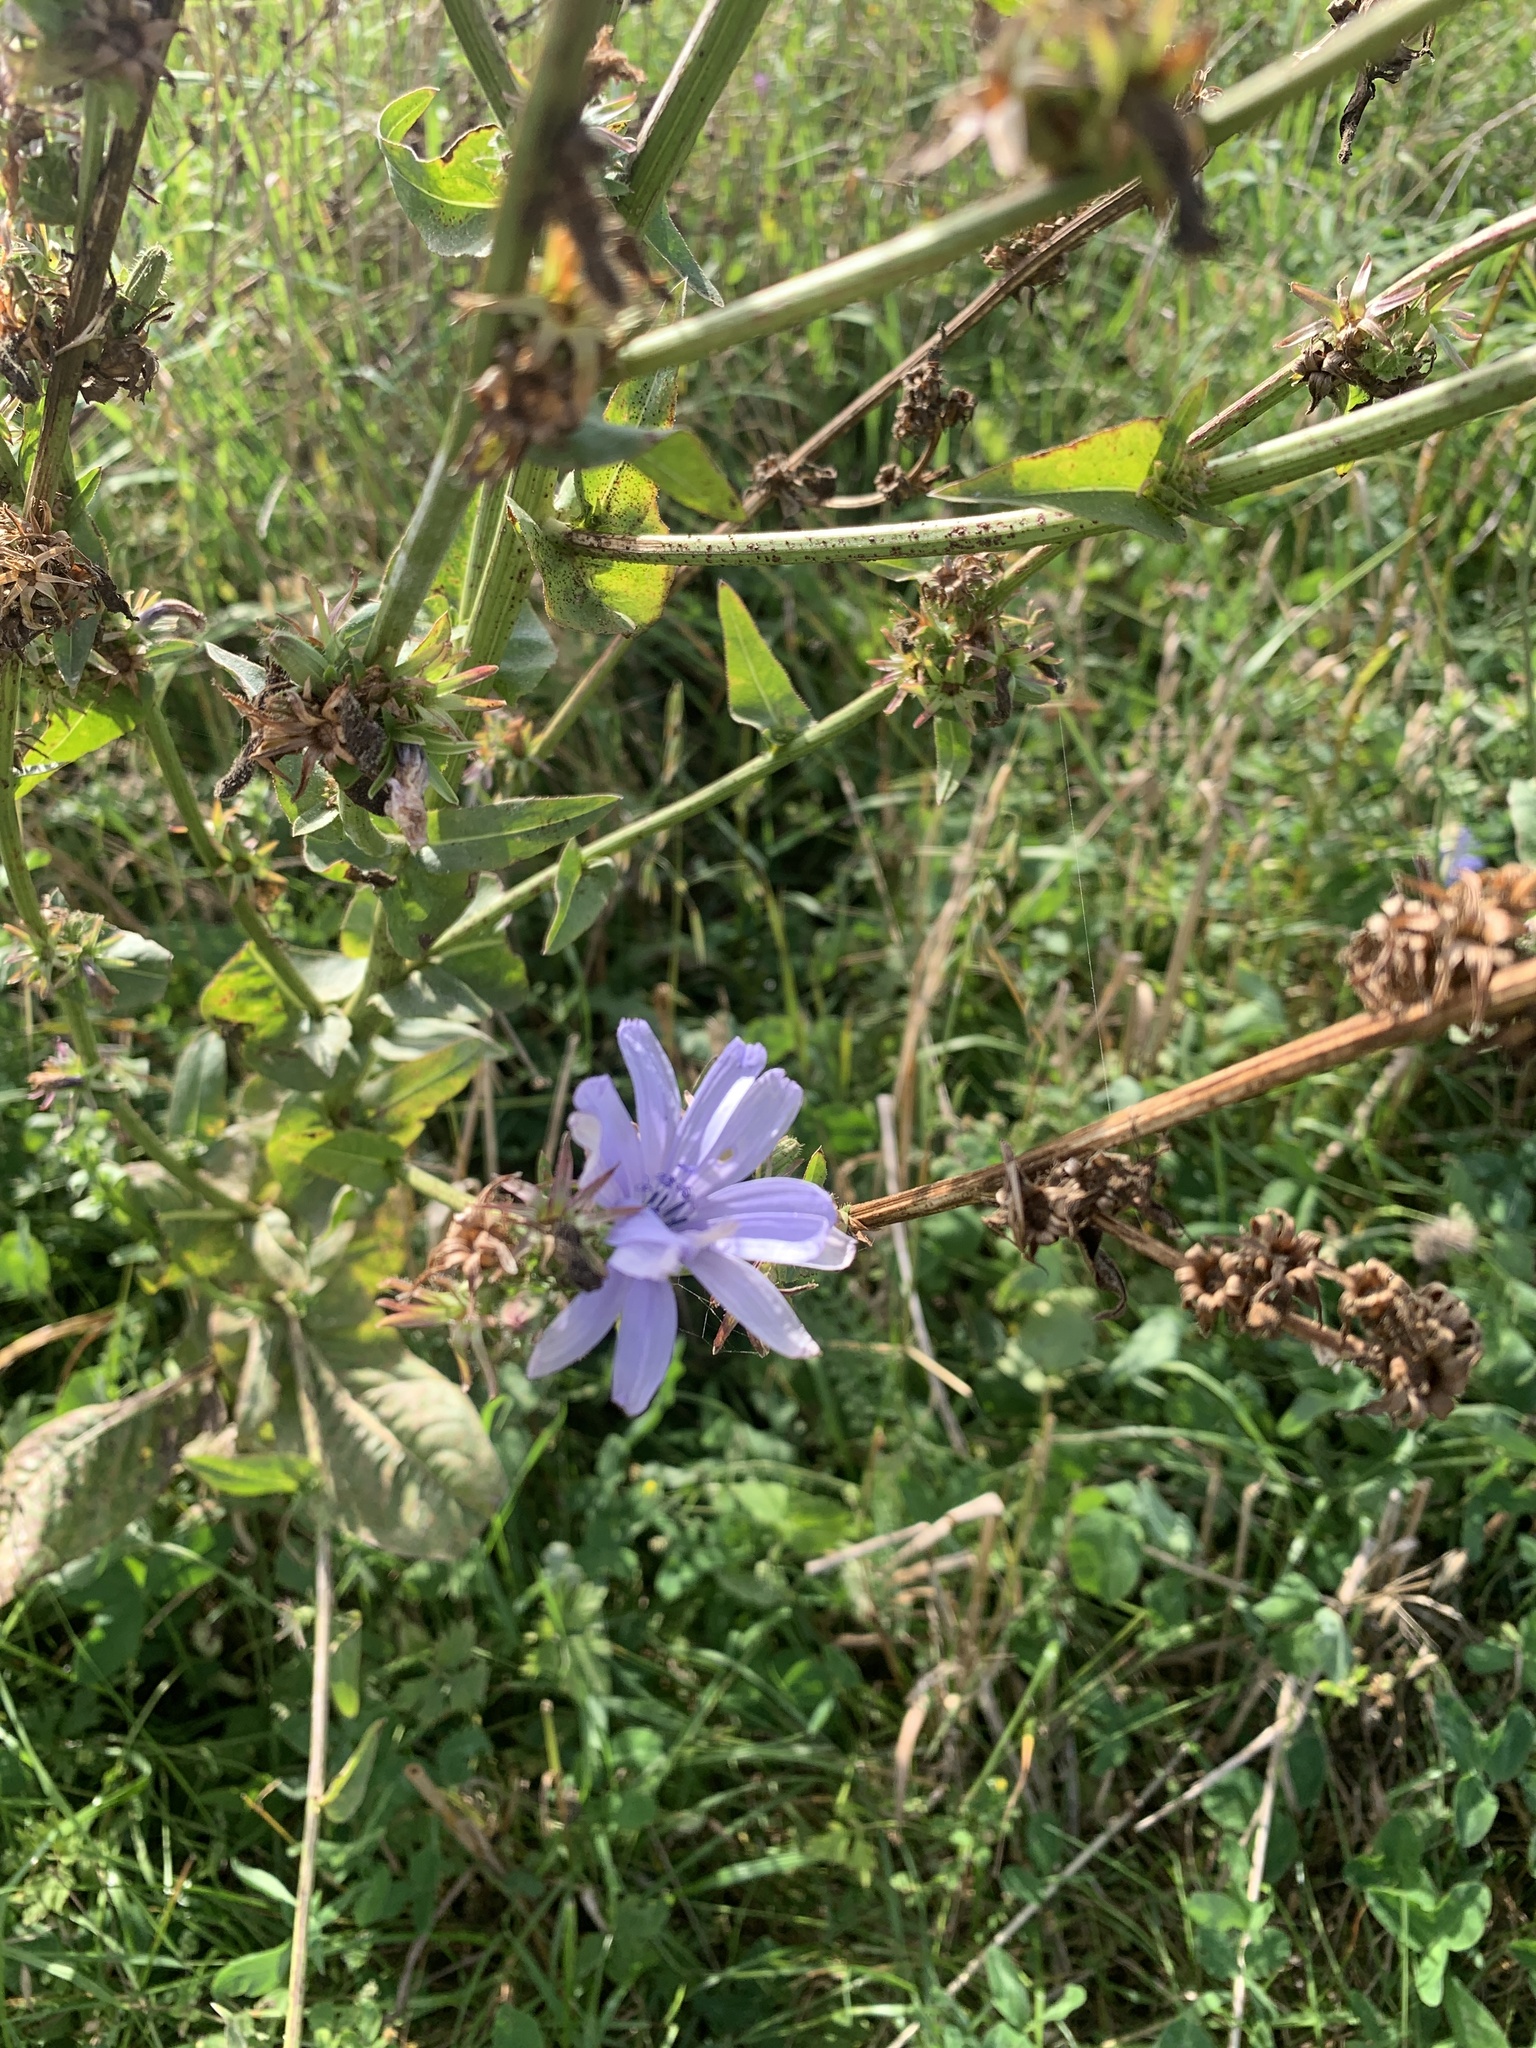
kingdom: Plantae
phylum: Tracheophyta
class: Magnoliopsida
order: Asterales
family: Asteraceae
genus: Cichorium
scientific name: Cichorium intybus
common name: Chicory
